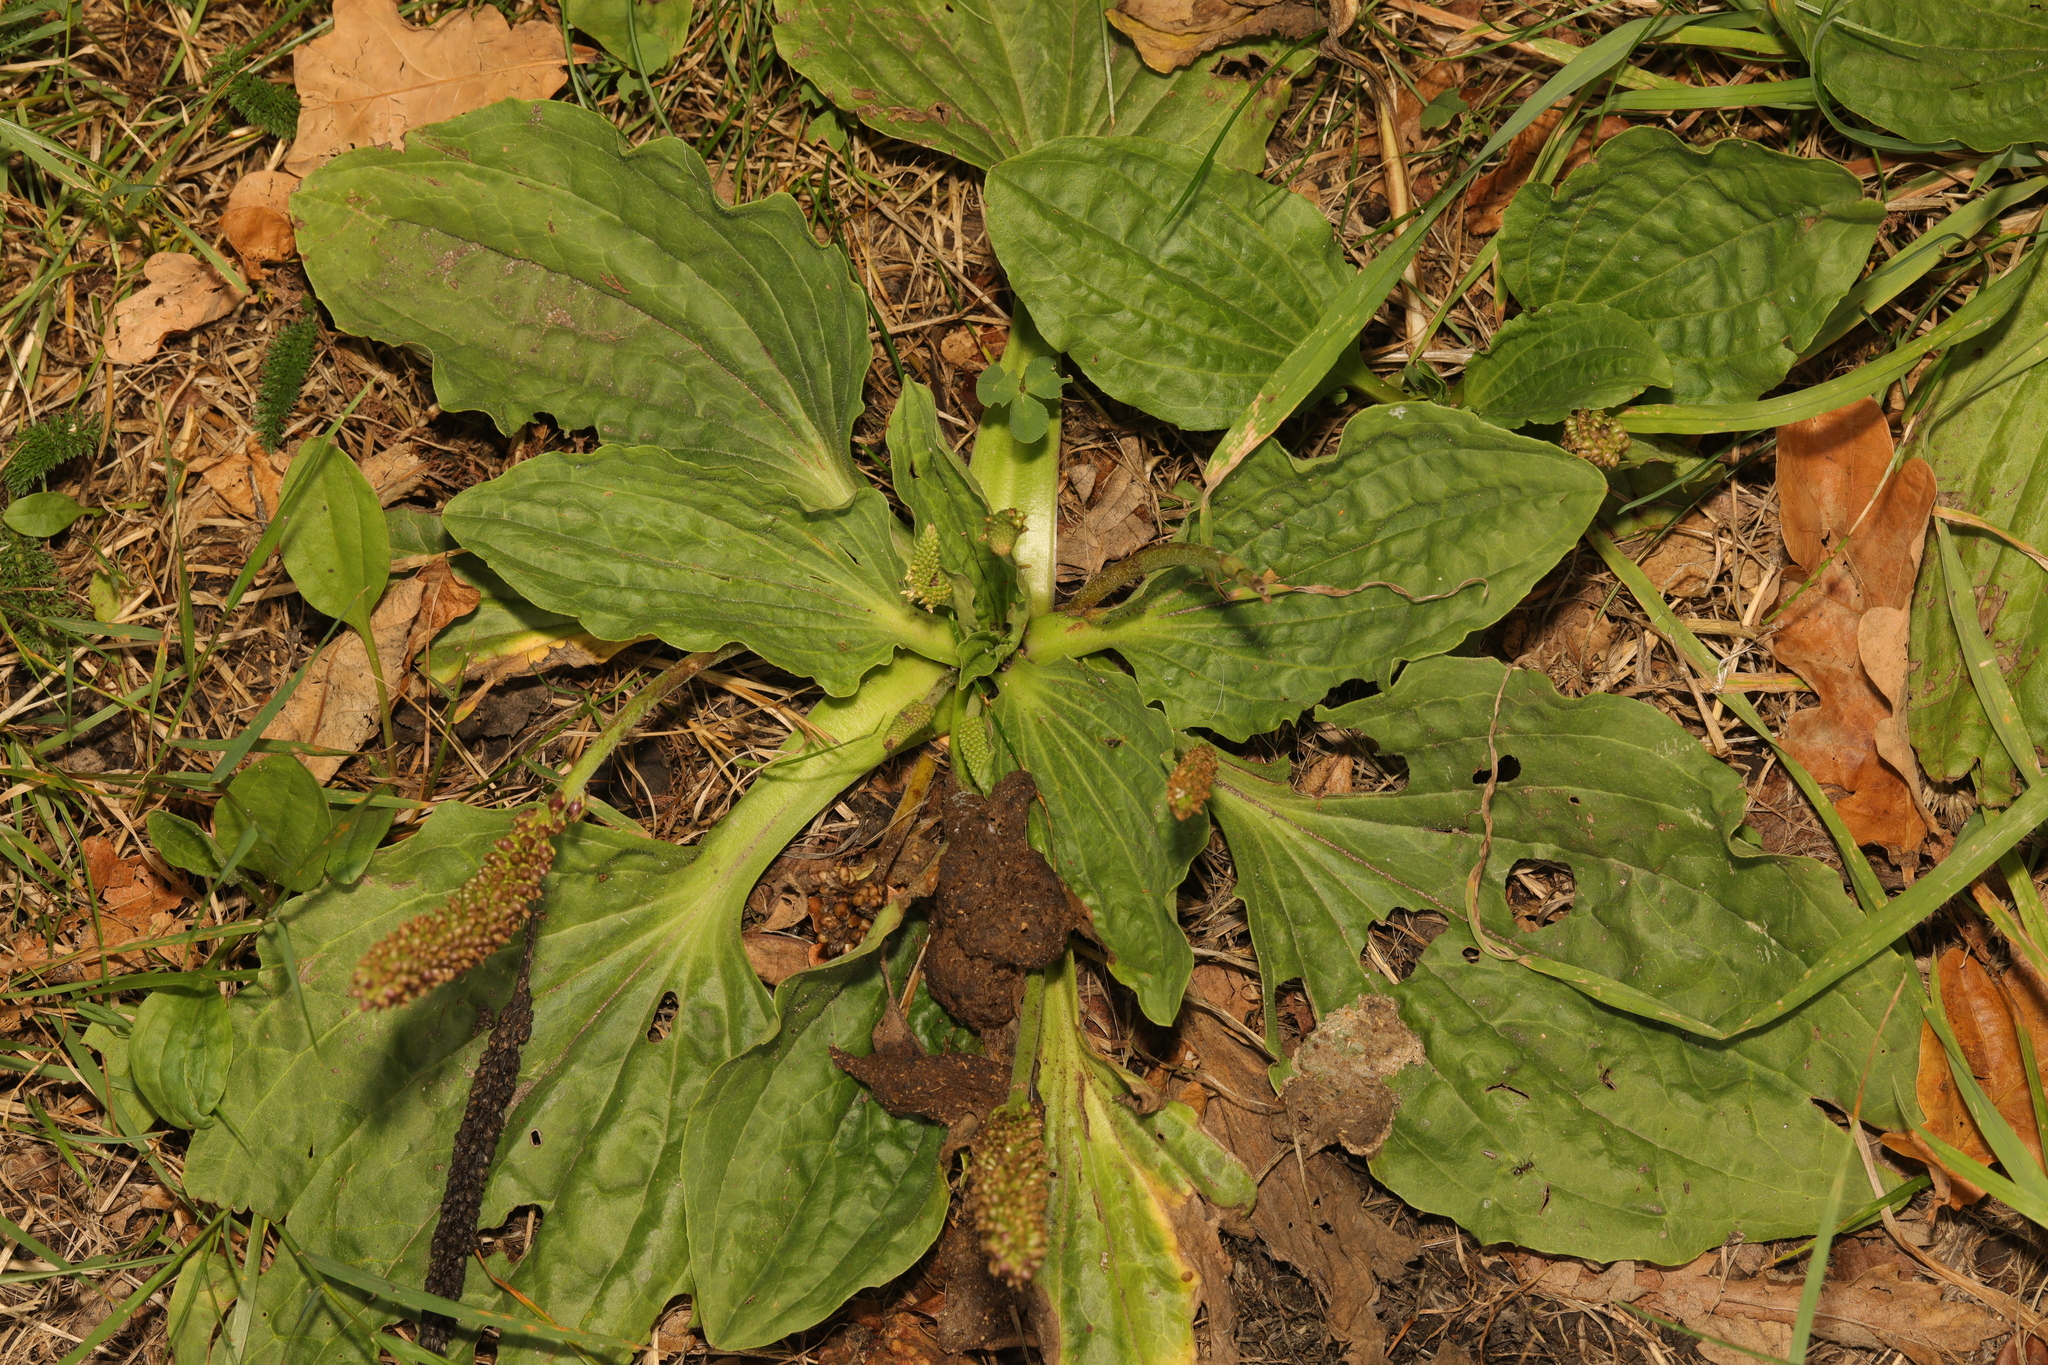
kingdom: Plantae
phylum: Tracheophyta
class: Magnoliopsida
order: Lamiales
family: Plantaginaceae
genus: Plantago
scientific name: Plantago major
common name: Common plantain
